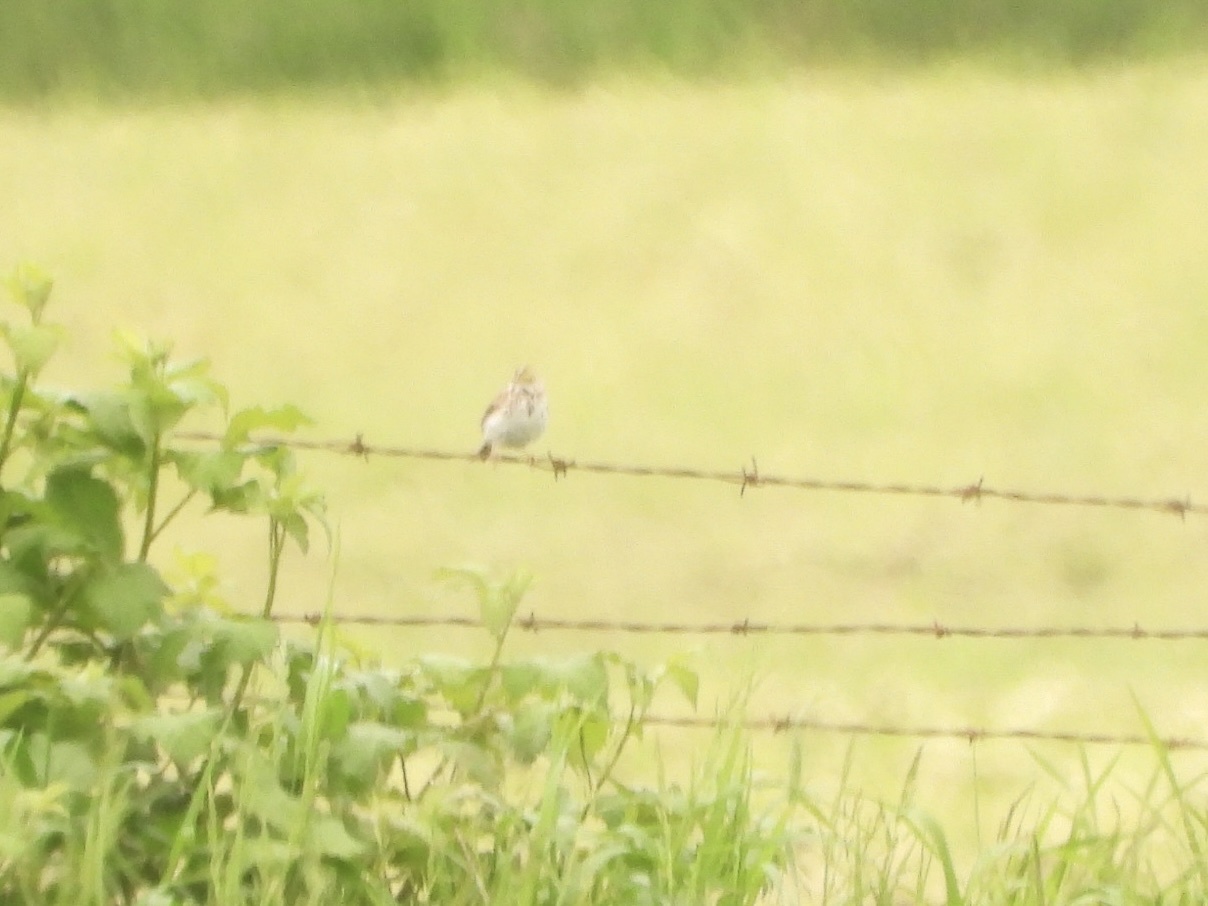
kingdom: Animalia
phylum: Chordata
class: Aves
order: Passeriformes
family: Passerellidae
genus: Passerculus
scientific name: Passerculus sandwichensis
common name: Savannah sparrow
